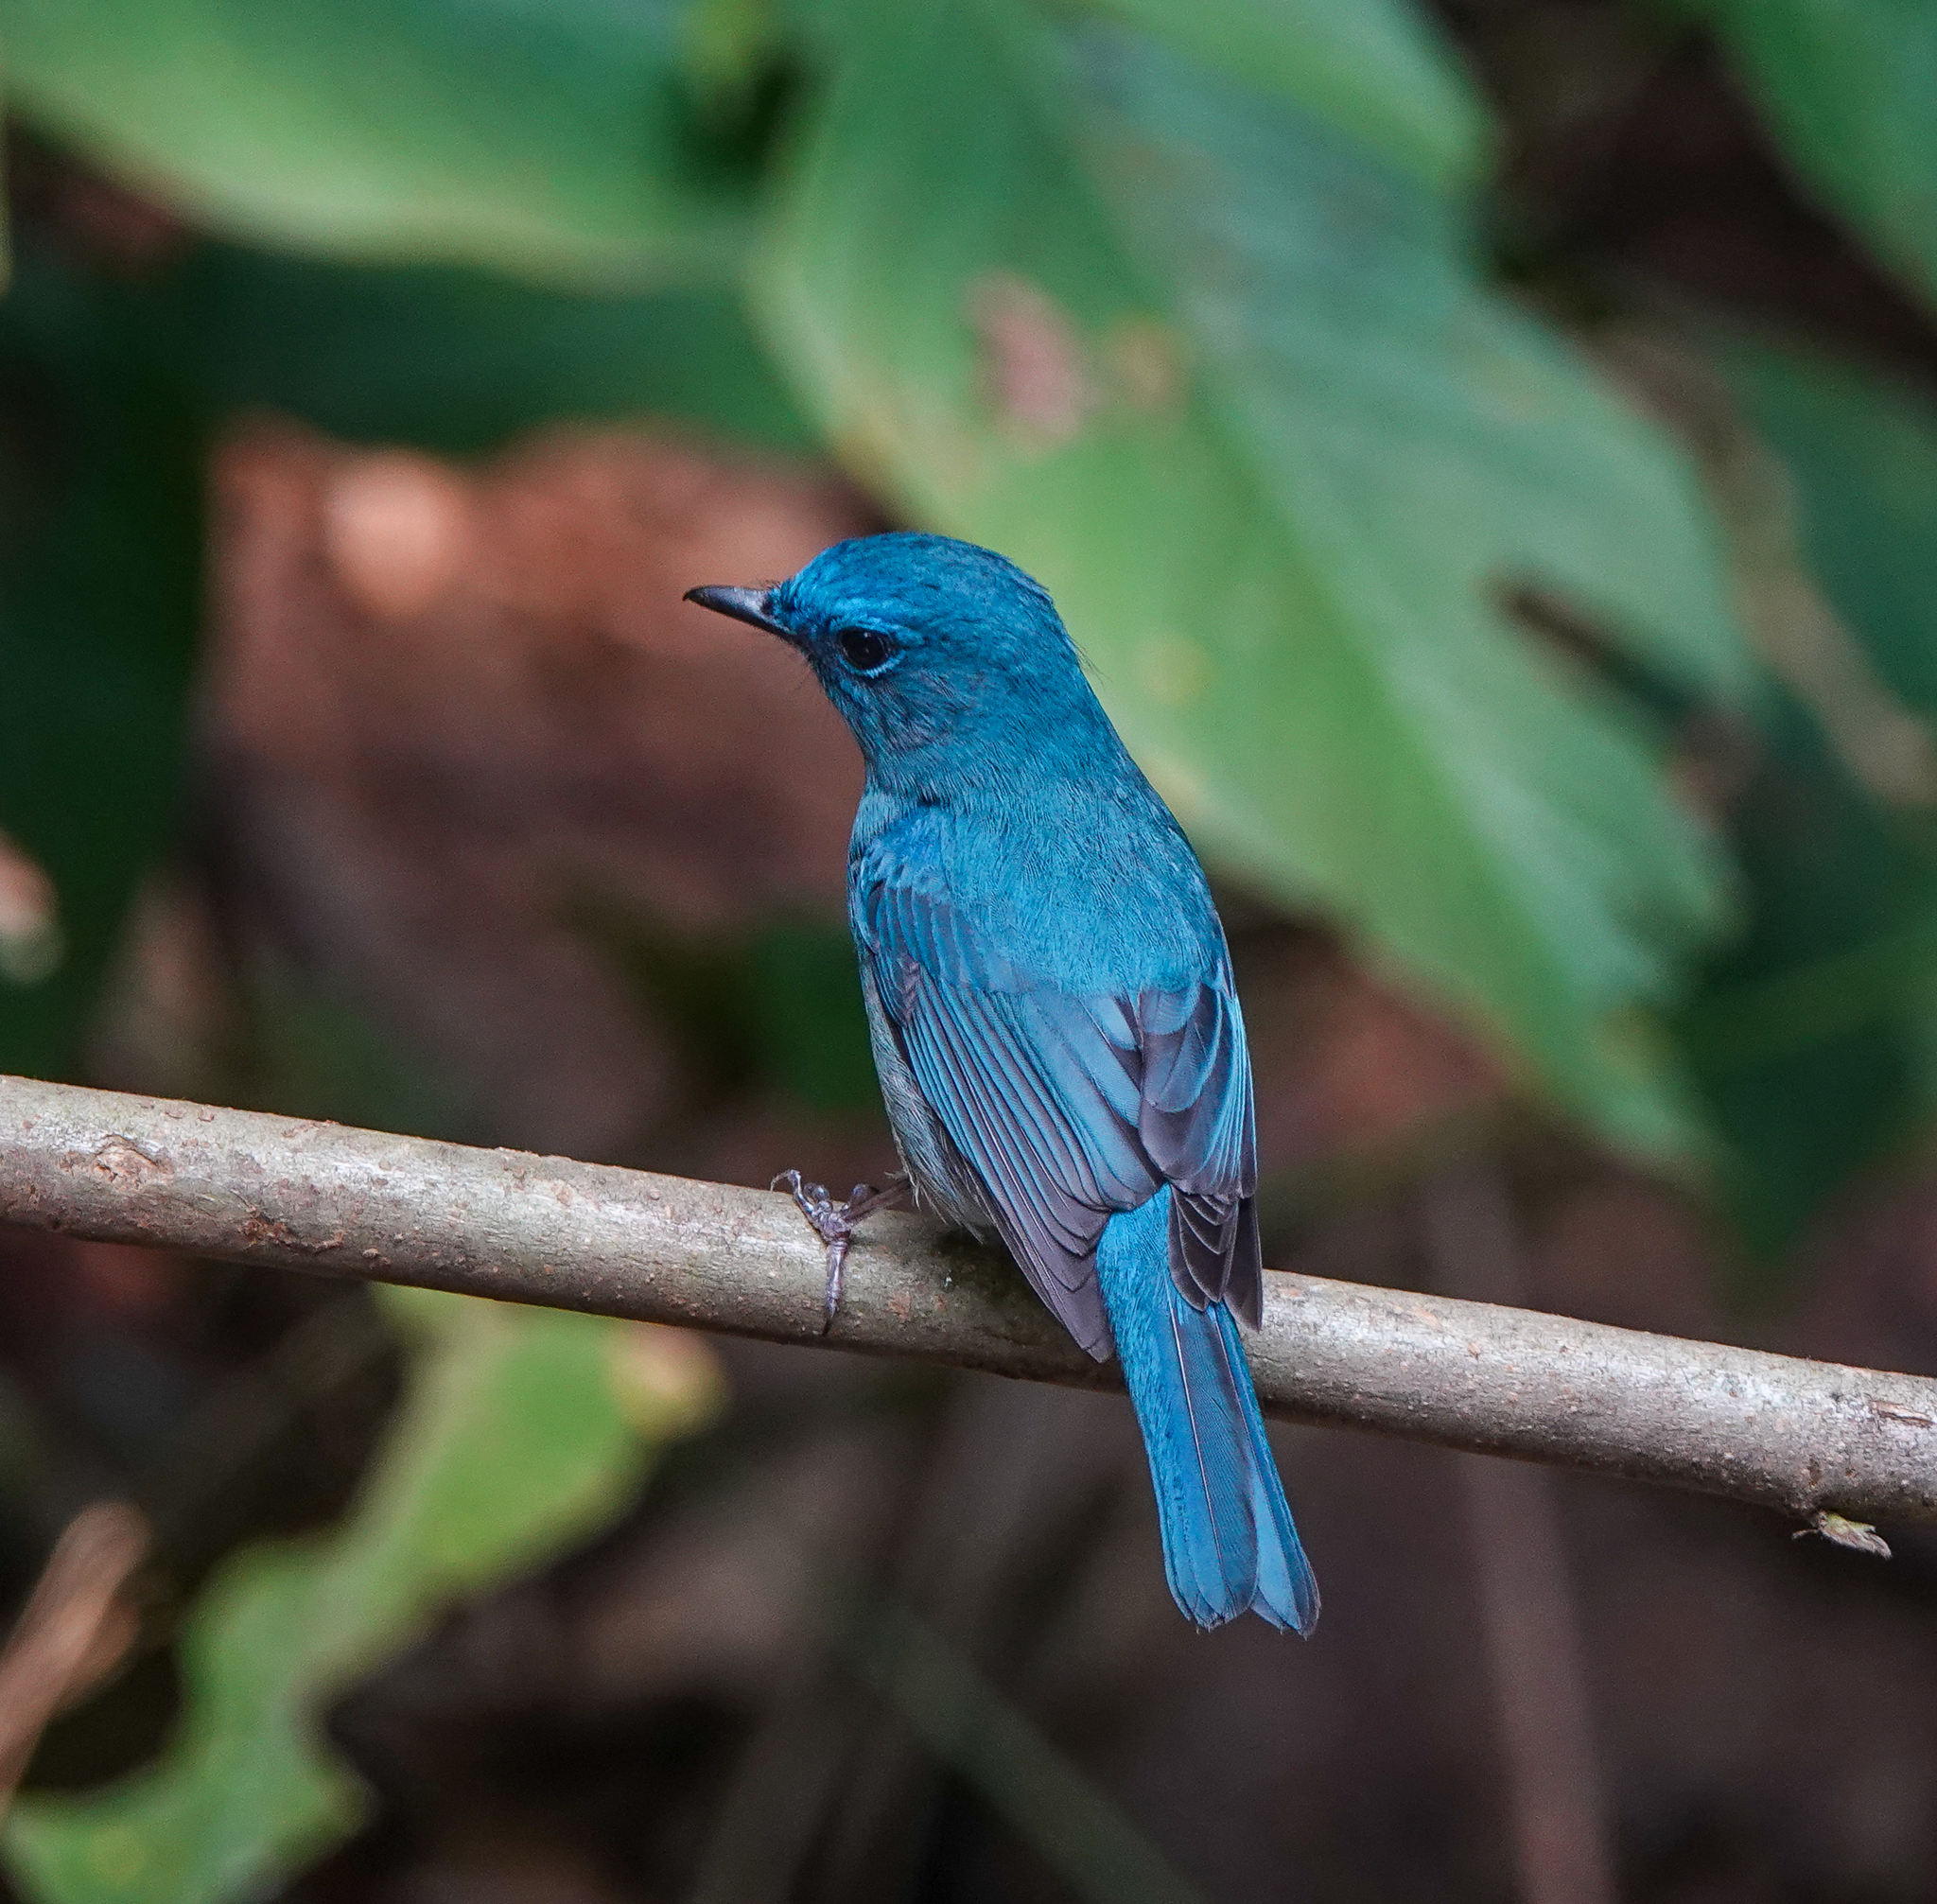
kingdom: Animalia
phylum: Chordata
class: Aves
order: Passeriformes
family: Muscicapidae
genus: Cyornis
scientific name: Cyornis unicolor
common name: Pale blue flycatcher
